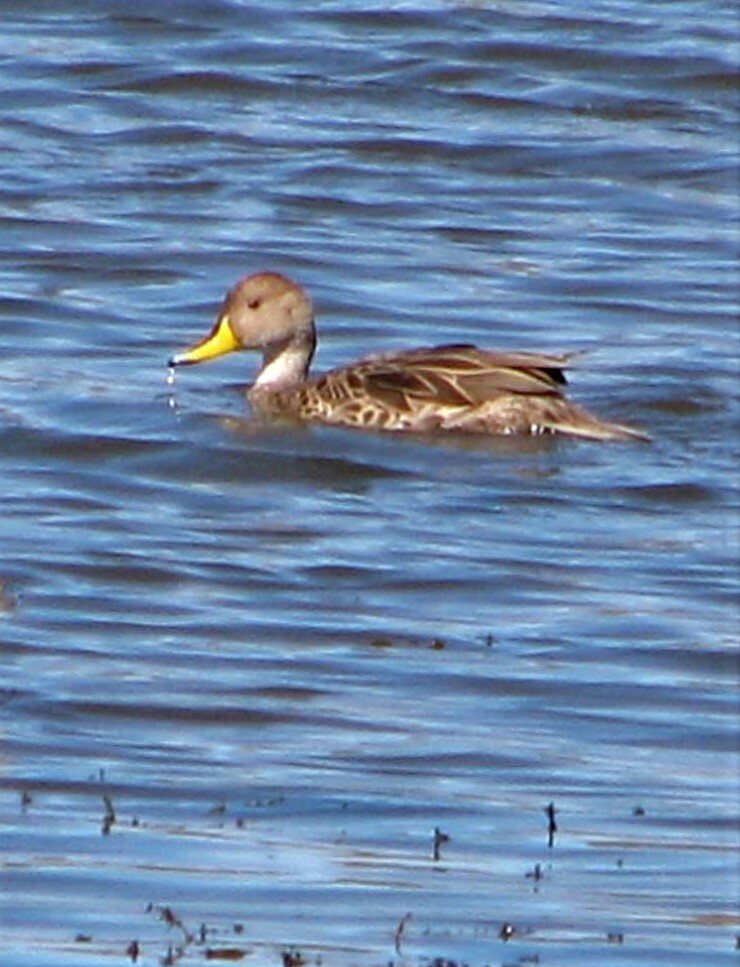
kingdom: Animalia
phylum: Chordata
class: Aves
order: Anseriformes
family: Anatidae
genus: Anas
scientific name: Anas georgica
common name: Yellow-billed pintail
